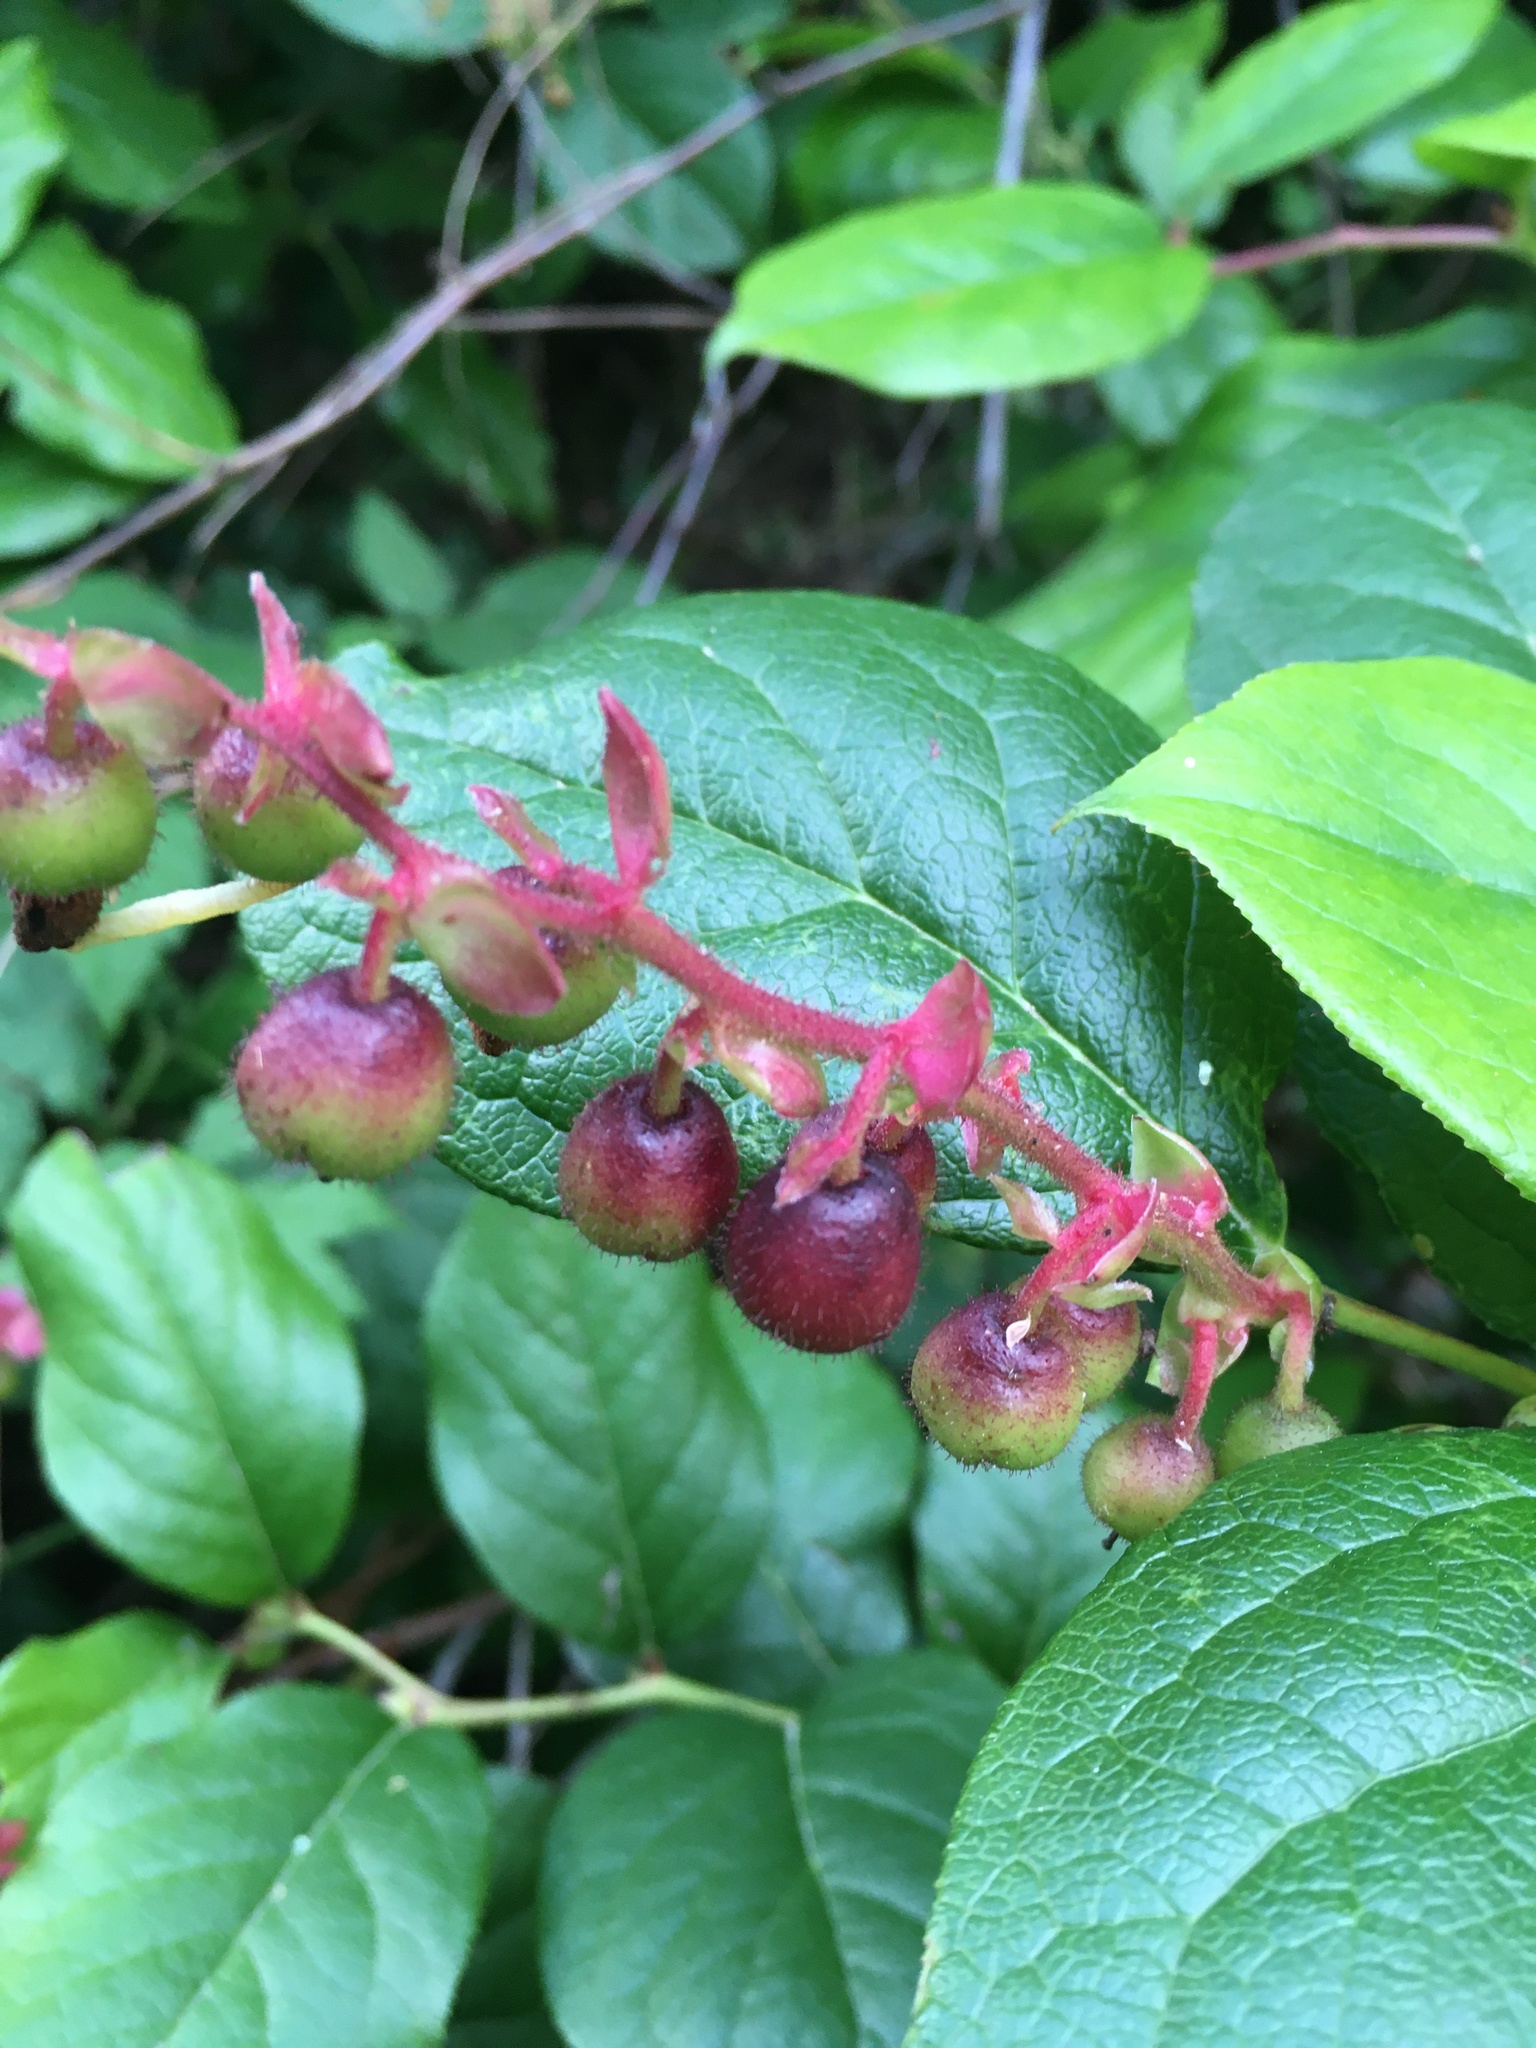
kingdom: Plantae
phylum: Tracheophyta
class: Magnoliopsida
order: Ericales
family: Ericaceae
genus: Gaultheria
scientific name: Gaultheria shallon
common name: Shallon
